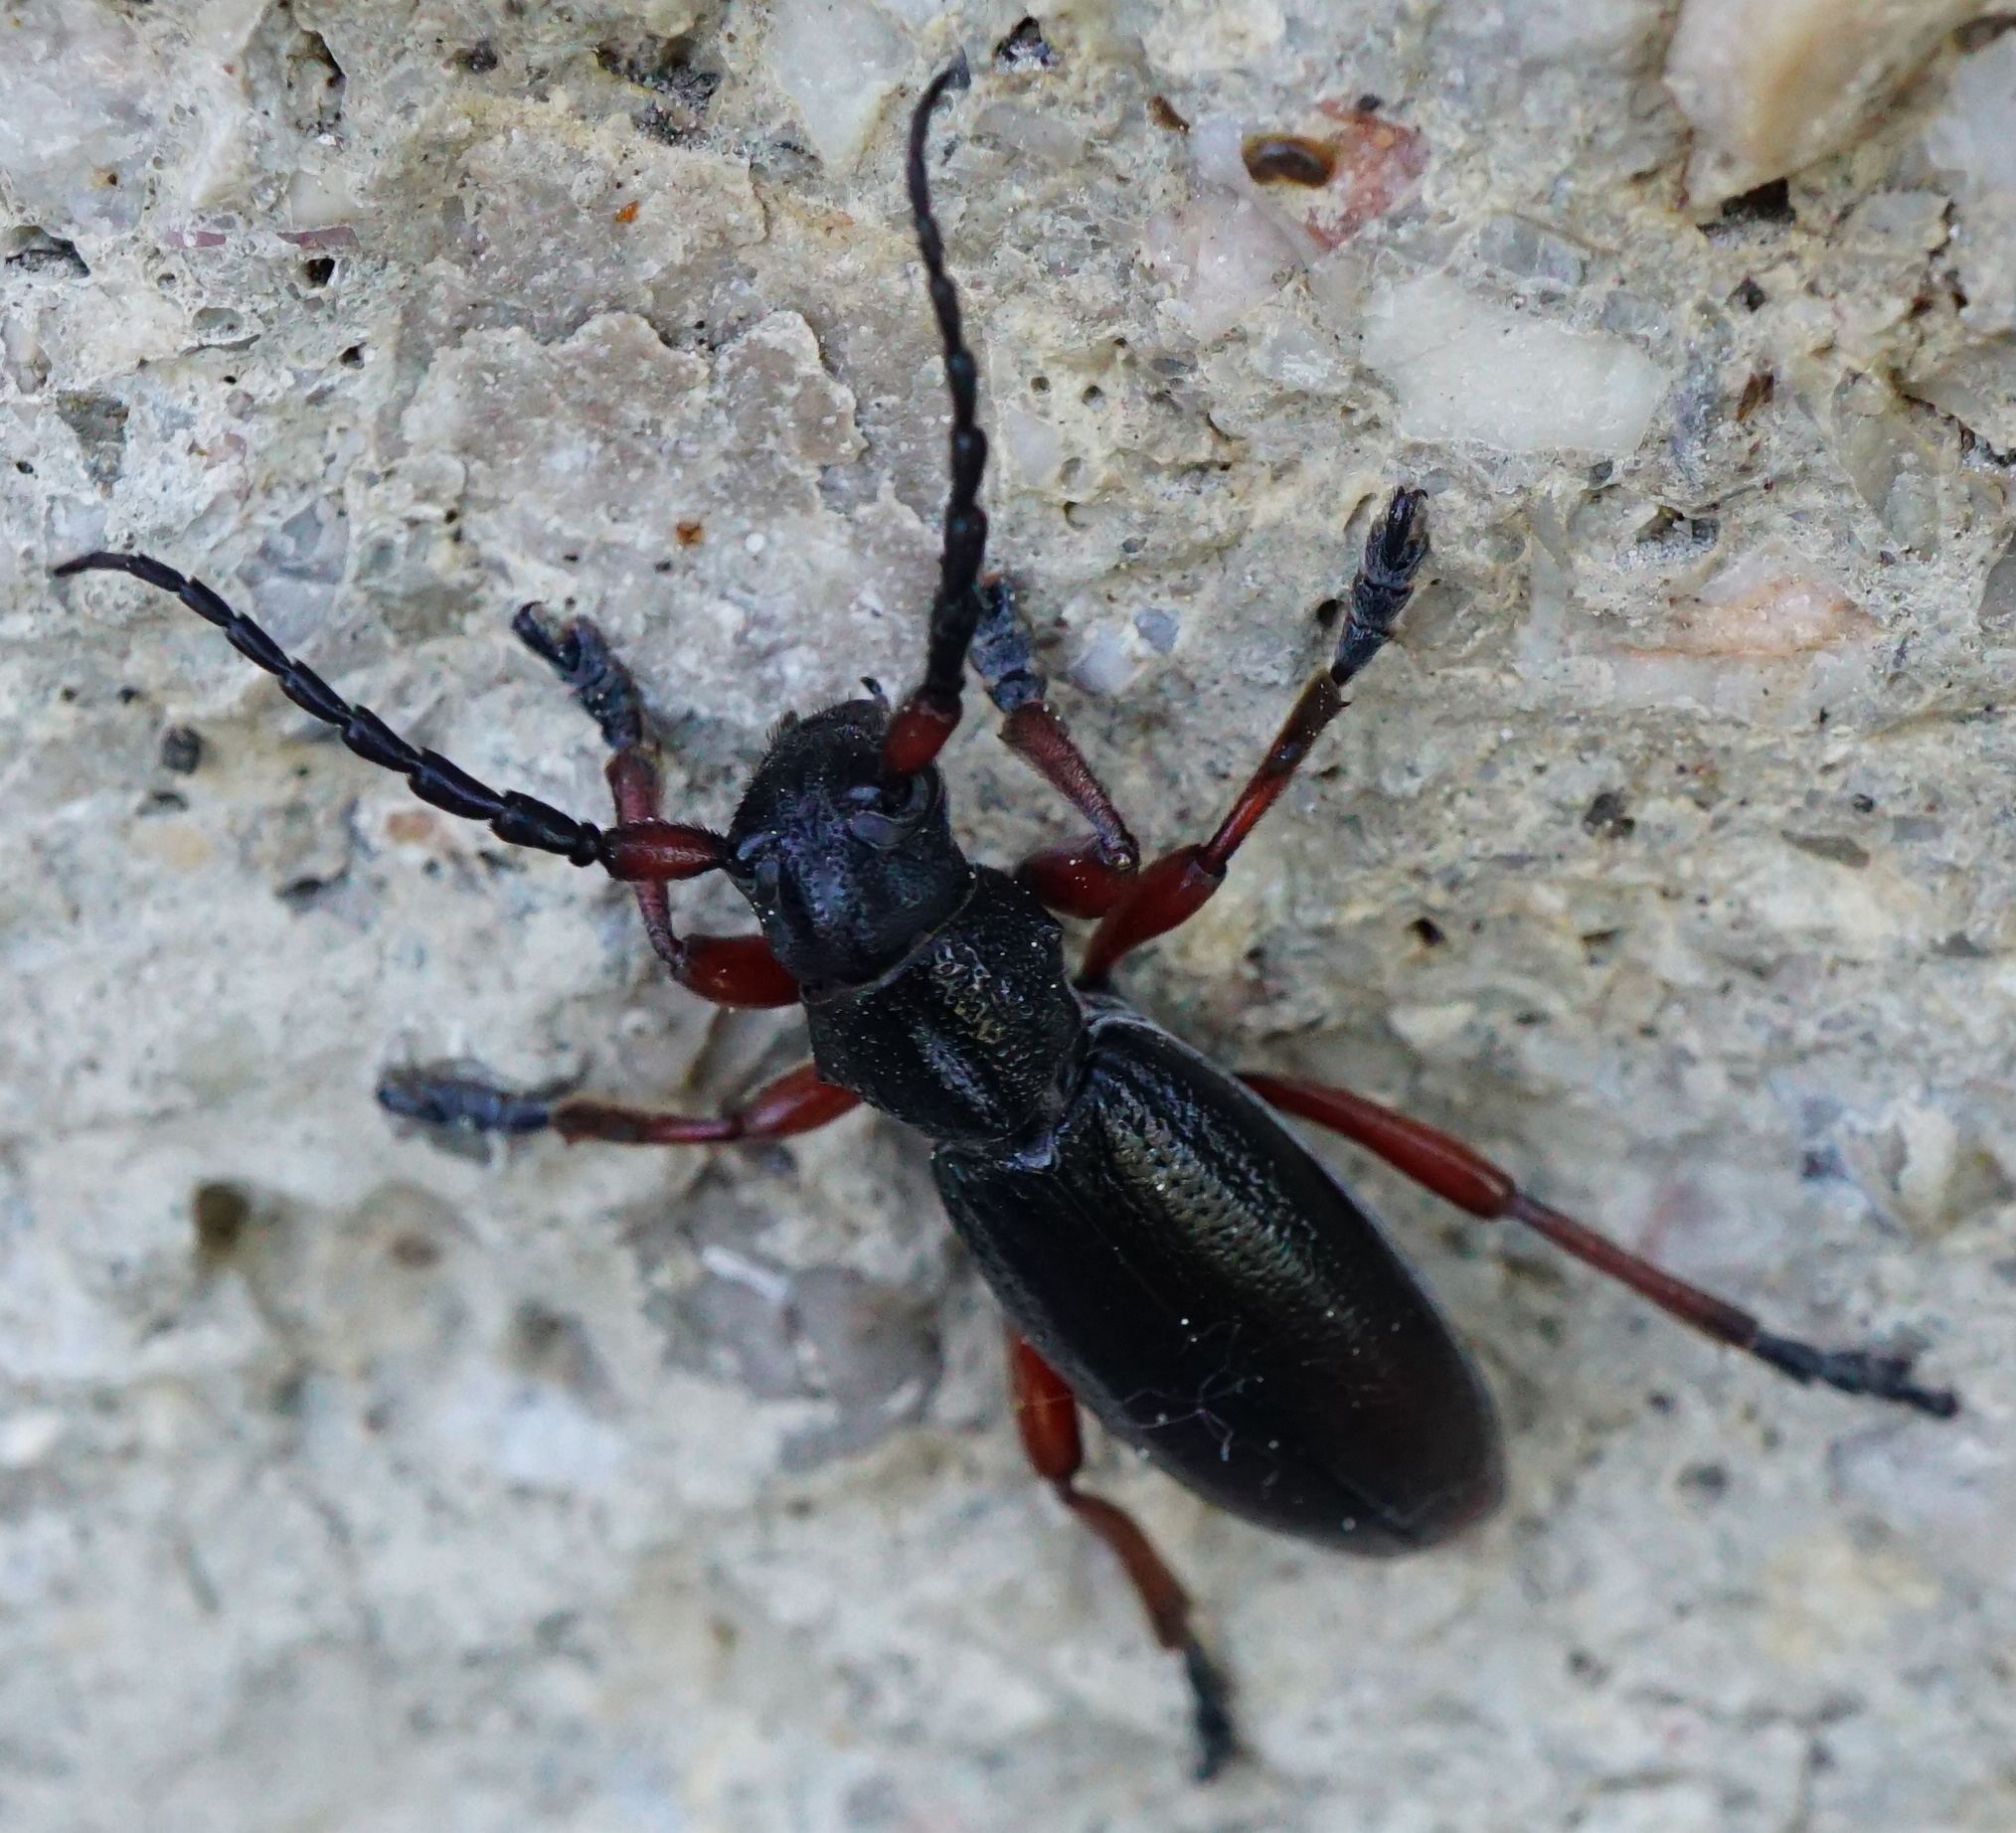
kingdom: Animalia
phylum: Arthropoda
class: Insecta
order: Coleoptera
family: Cerambycidae
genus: Dorcadion
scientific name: Dorcadion fulvum
